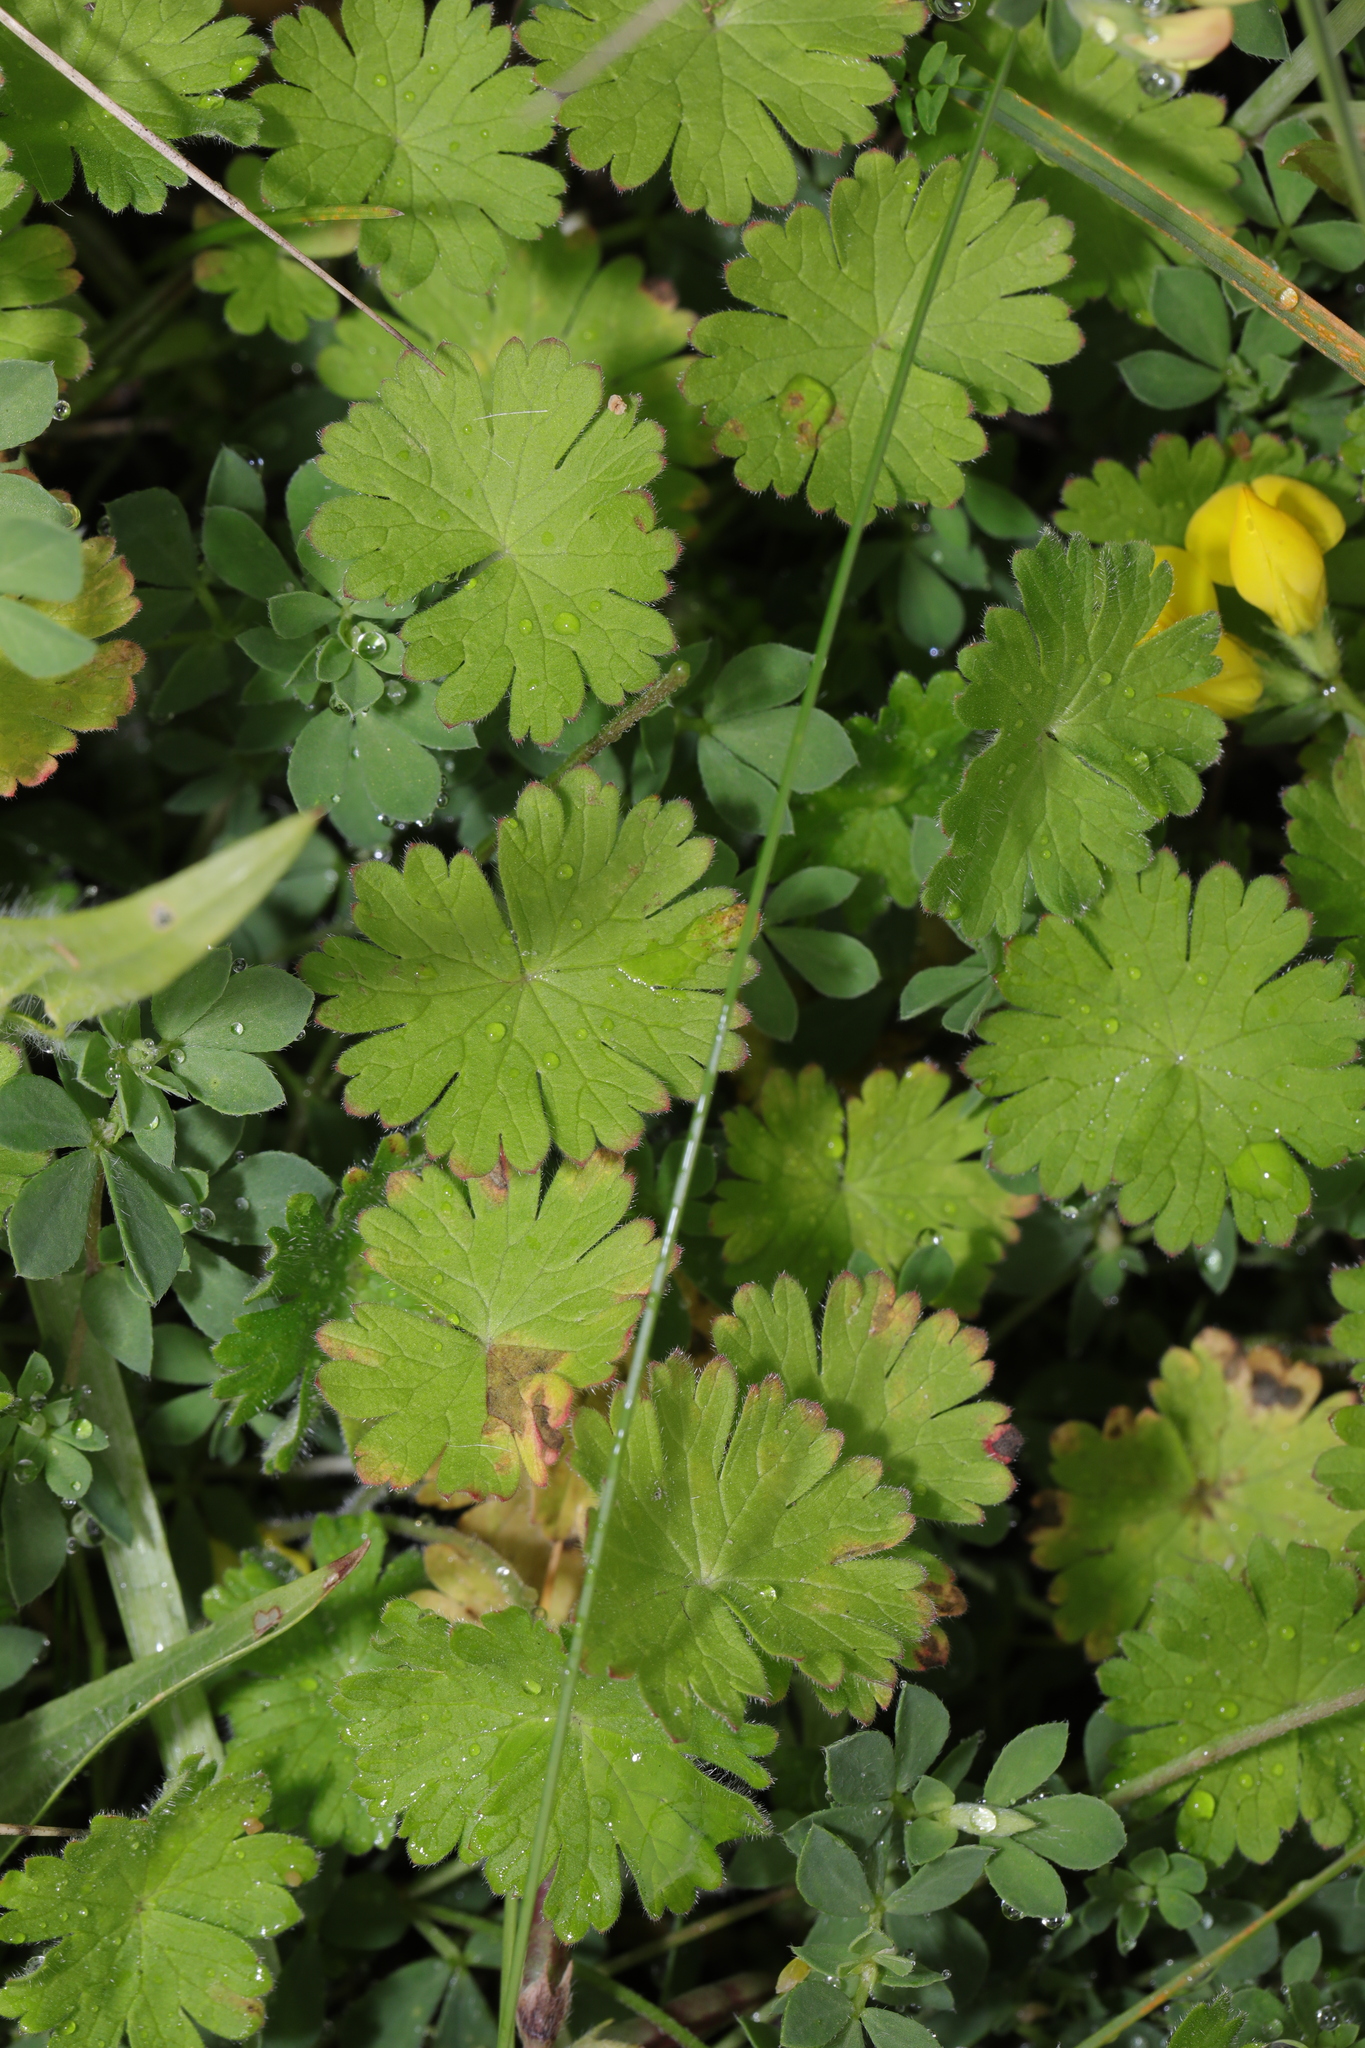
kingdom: Plantae
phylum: Tracheophyta
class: Magnoliopsida
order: Geraniales
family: Geraniaceae
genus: Geranium
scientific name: Geranium molle
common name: Dove's-foot crane's-bill
